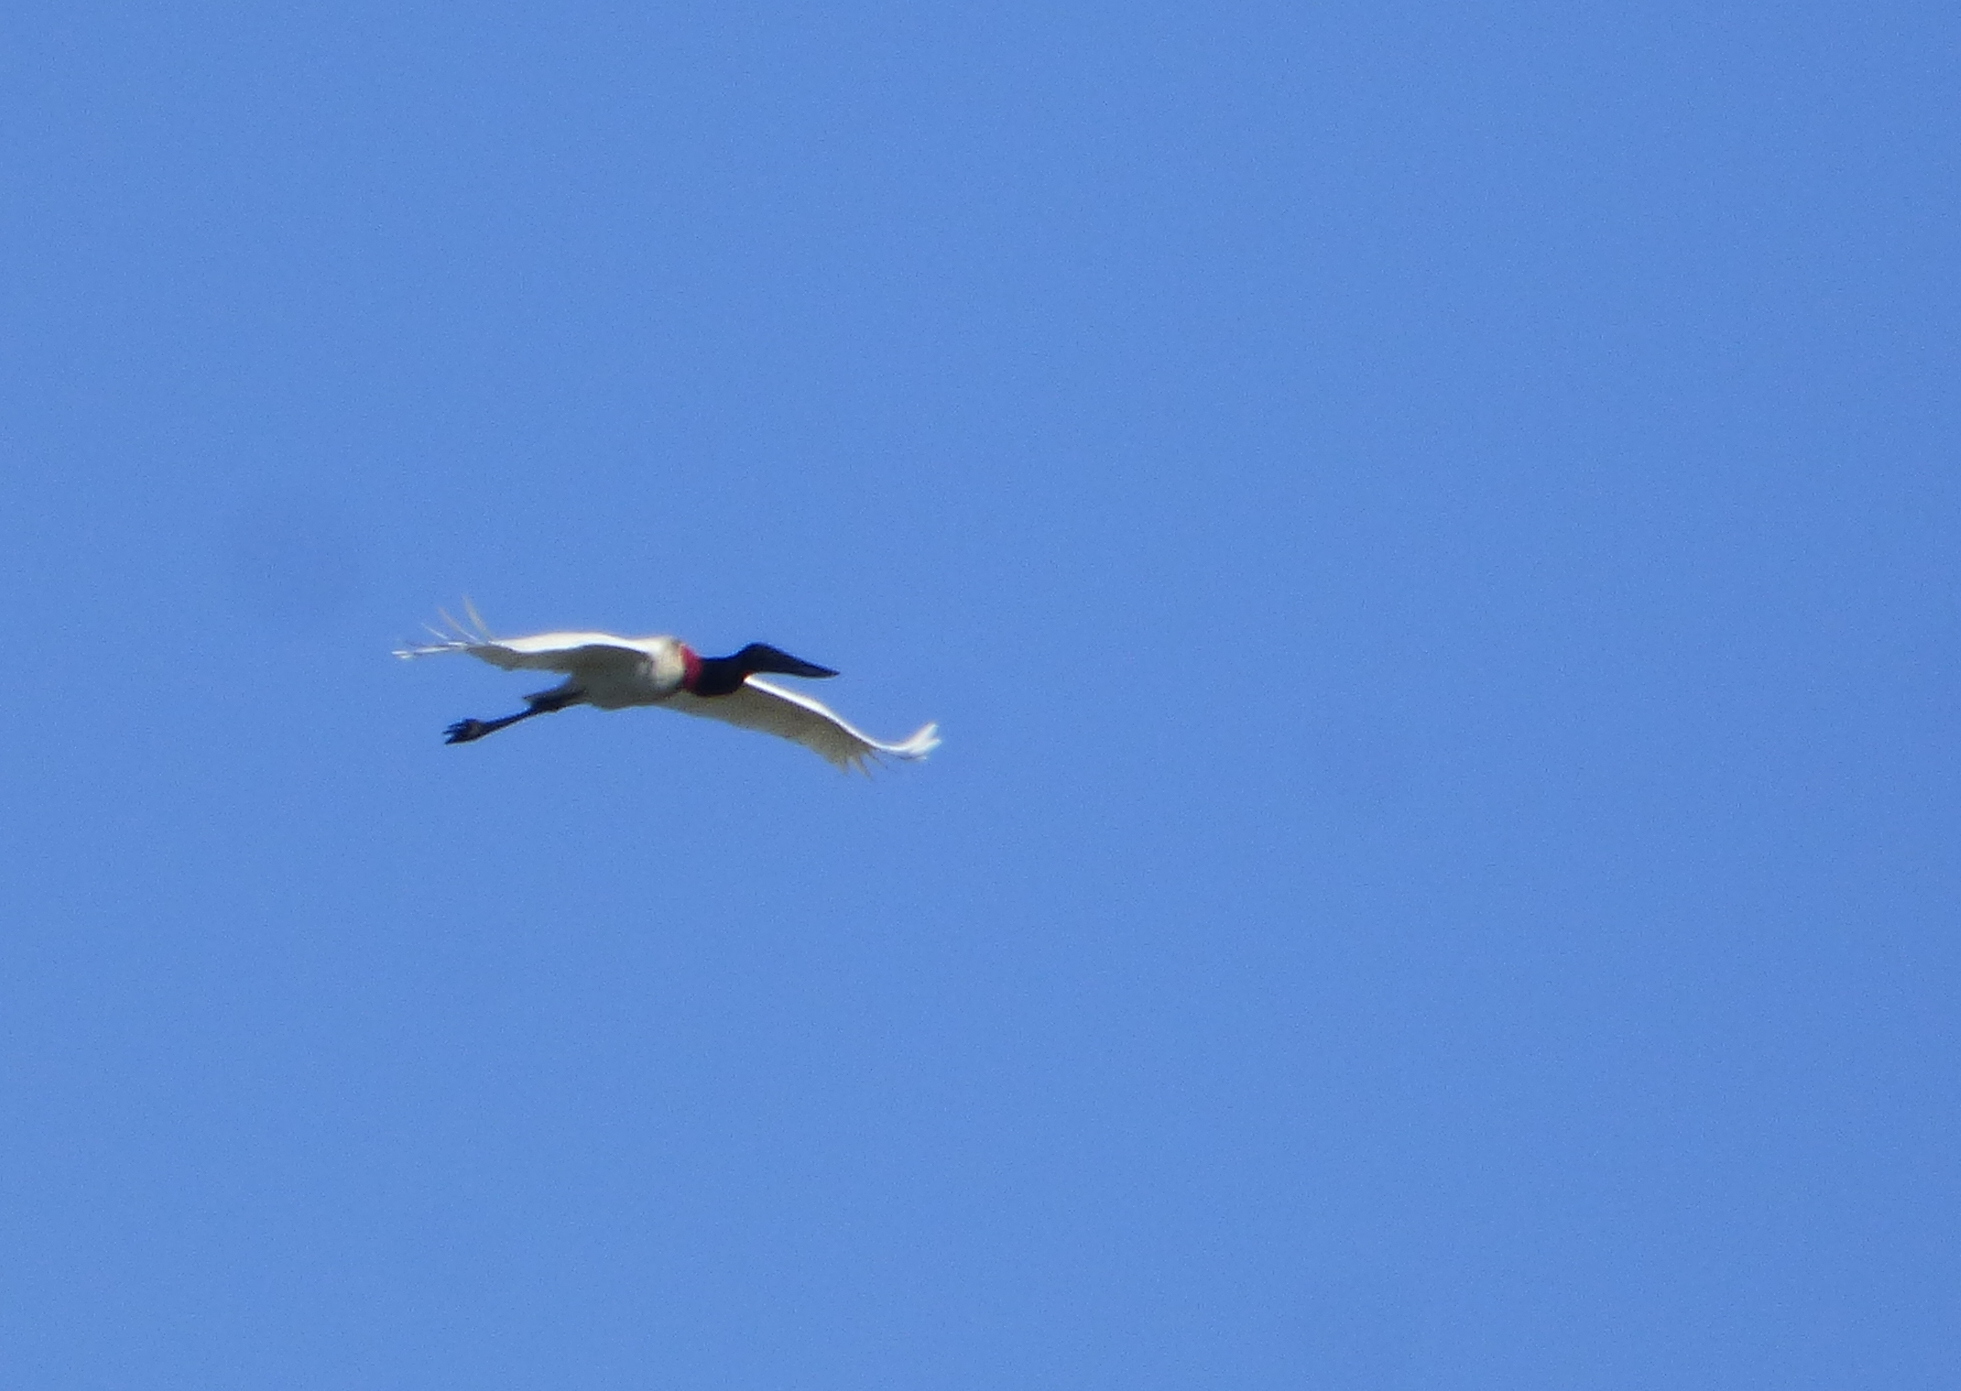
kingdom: Animalia
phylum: Chordata
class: Aves
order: Ciconiiformes
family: Ciconiidae
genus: Jabiru
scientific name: Jabiru mycteria
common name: Jabiru
